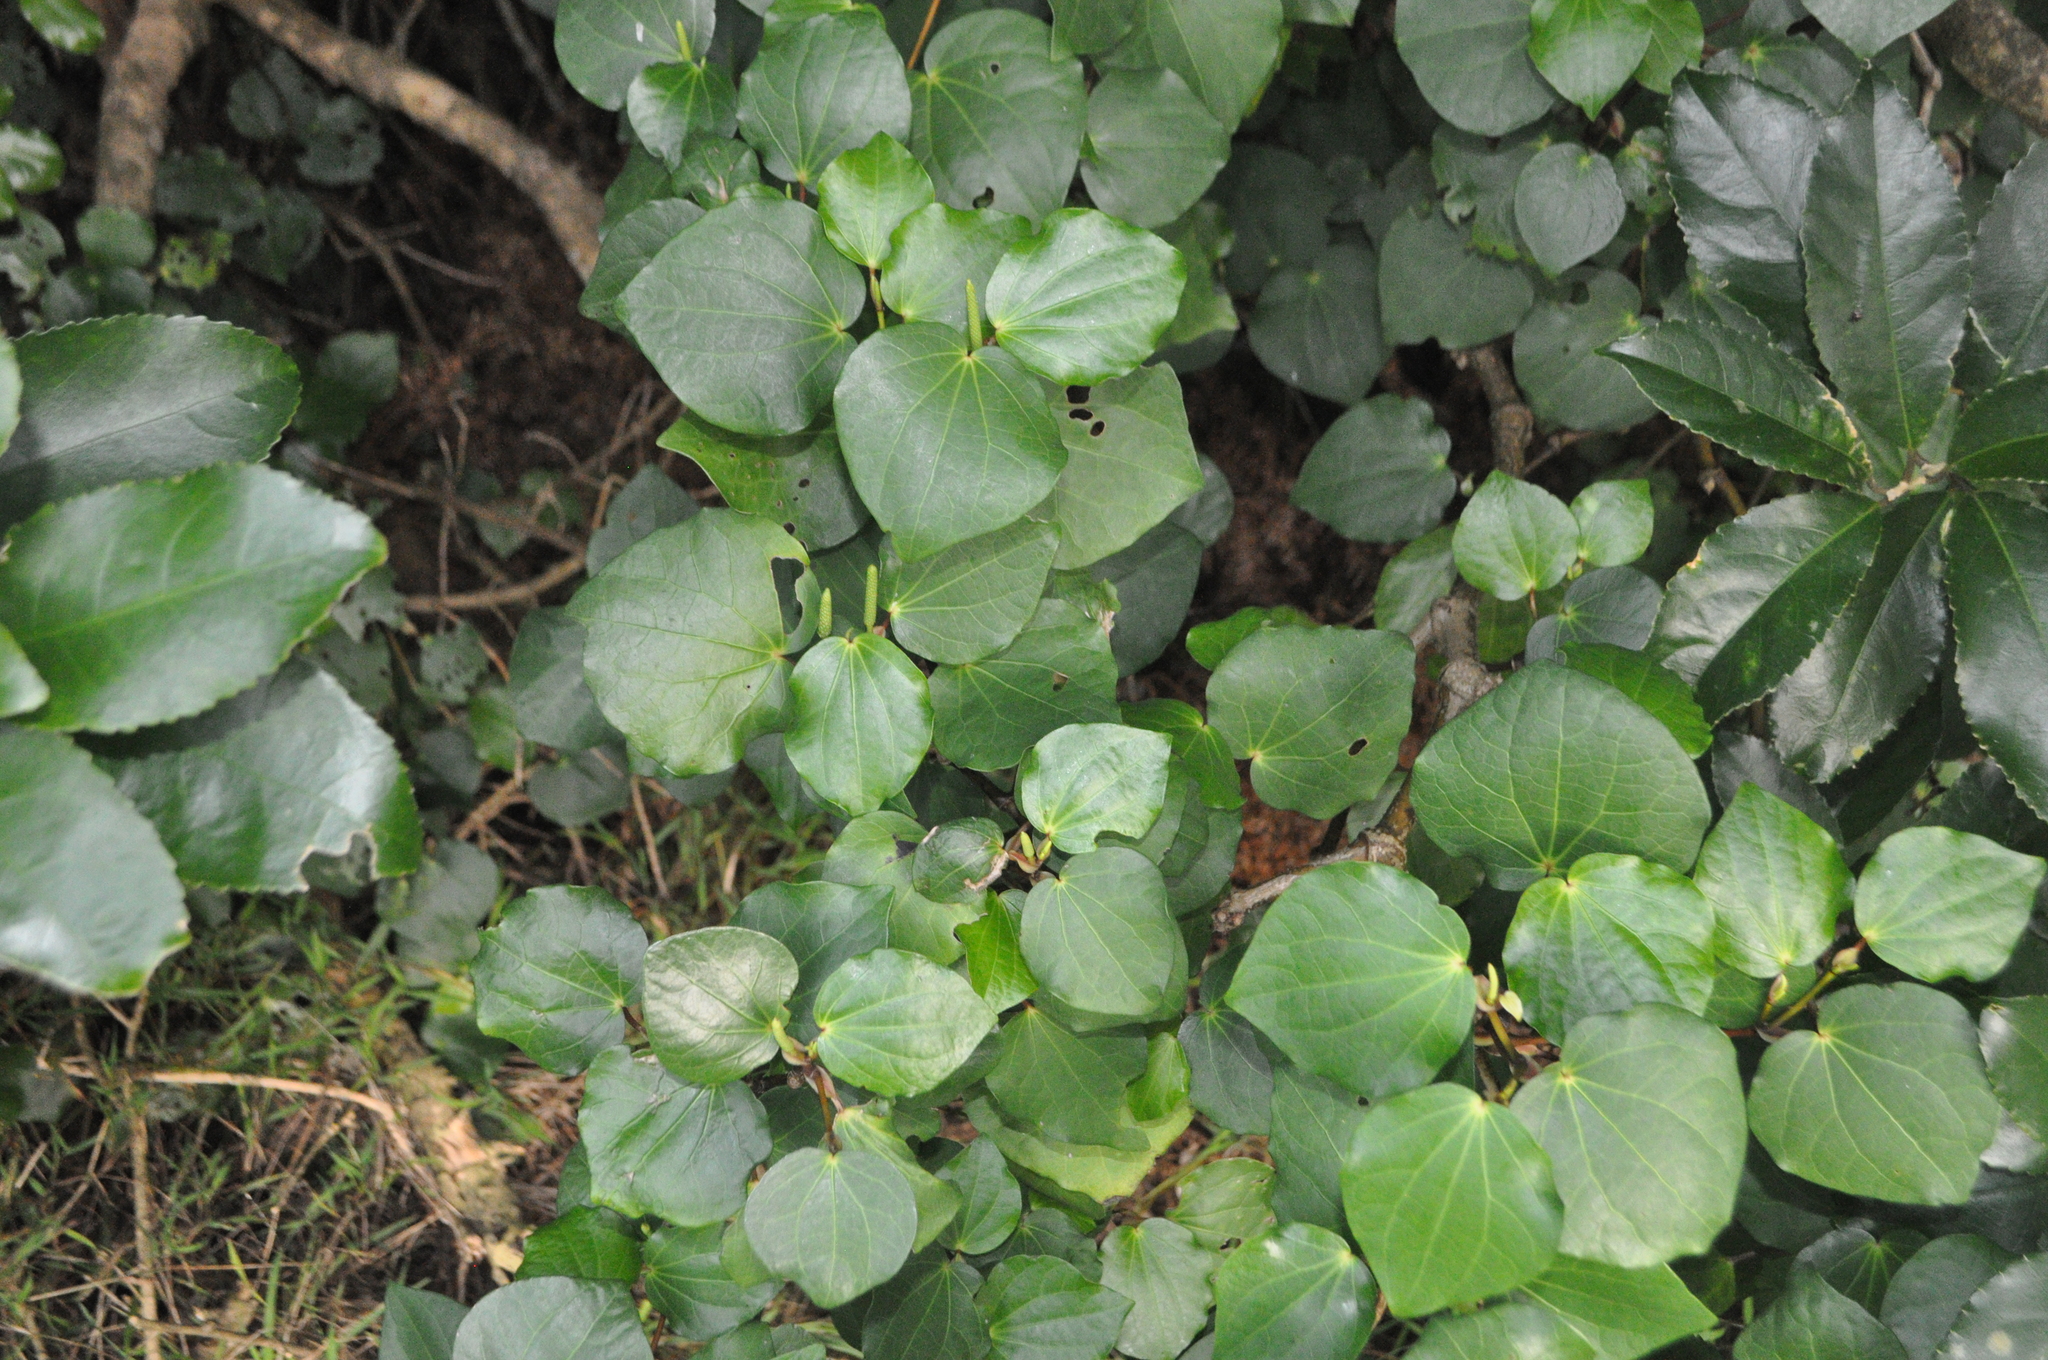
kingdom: Plantae
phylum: Tracheophyta
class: Magnoliopsida
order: Piperales
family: Piperaceae
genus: Macropiper
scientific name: Macropiper excelsum
